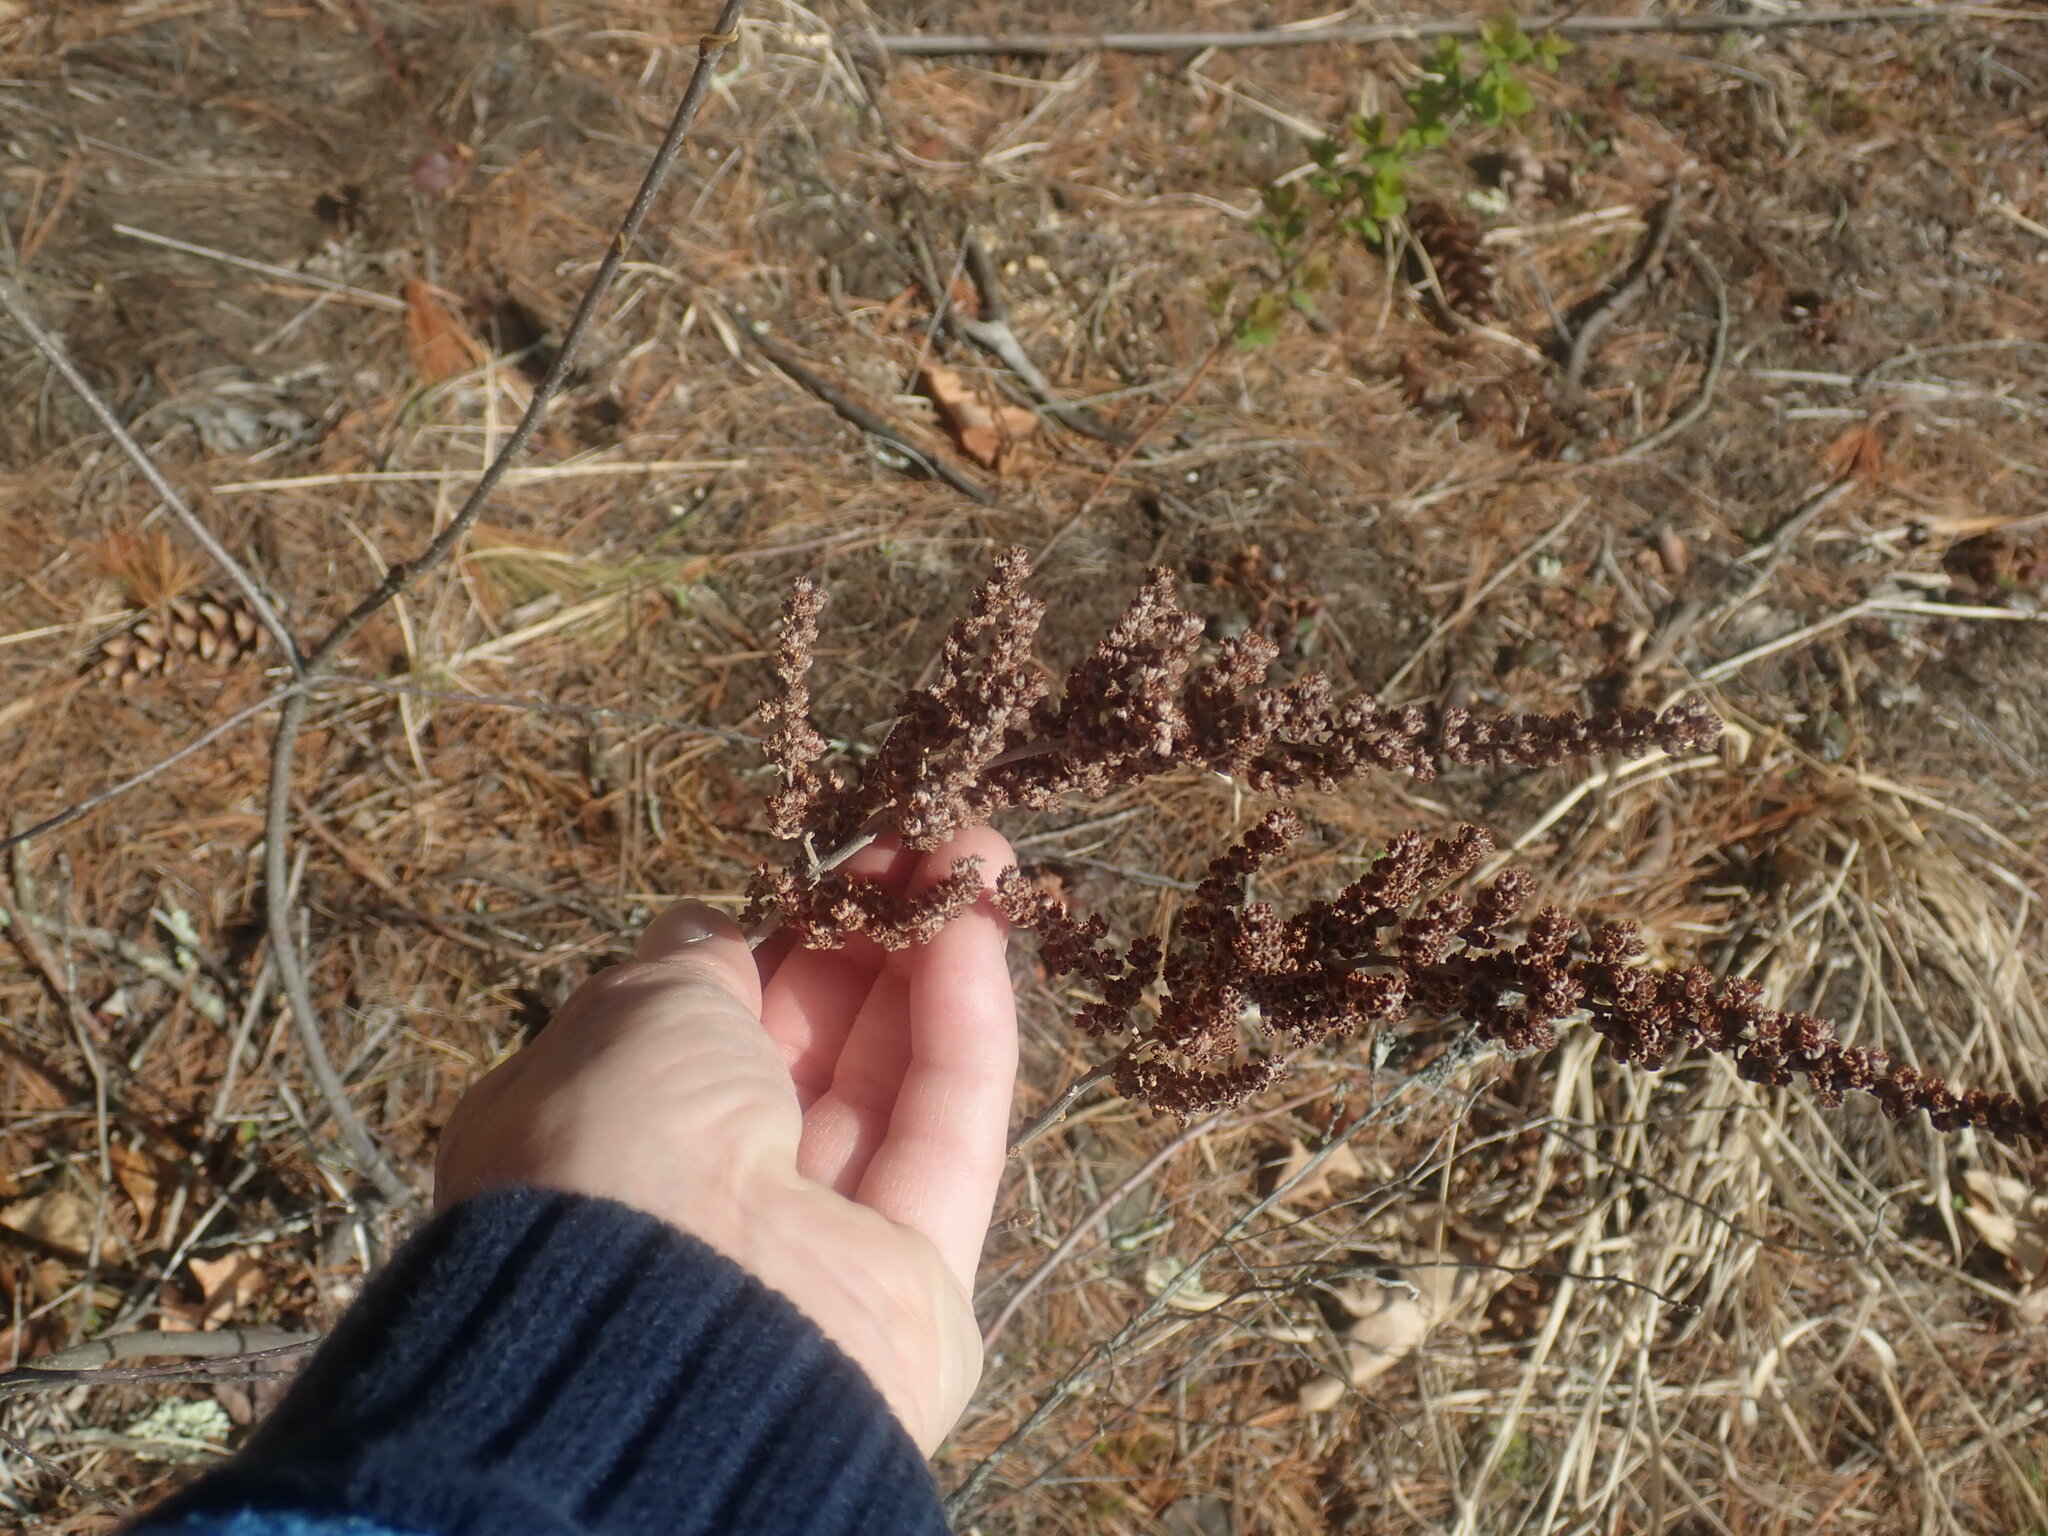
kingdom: Plantae
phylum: Tracheophyta
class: Magnoliopsida
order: Rosales
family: Rosaceae
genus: Spiraea
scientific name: Spiraea tomentosa
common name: Hardhack
